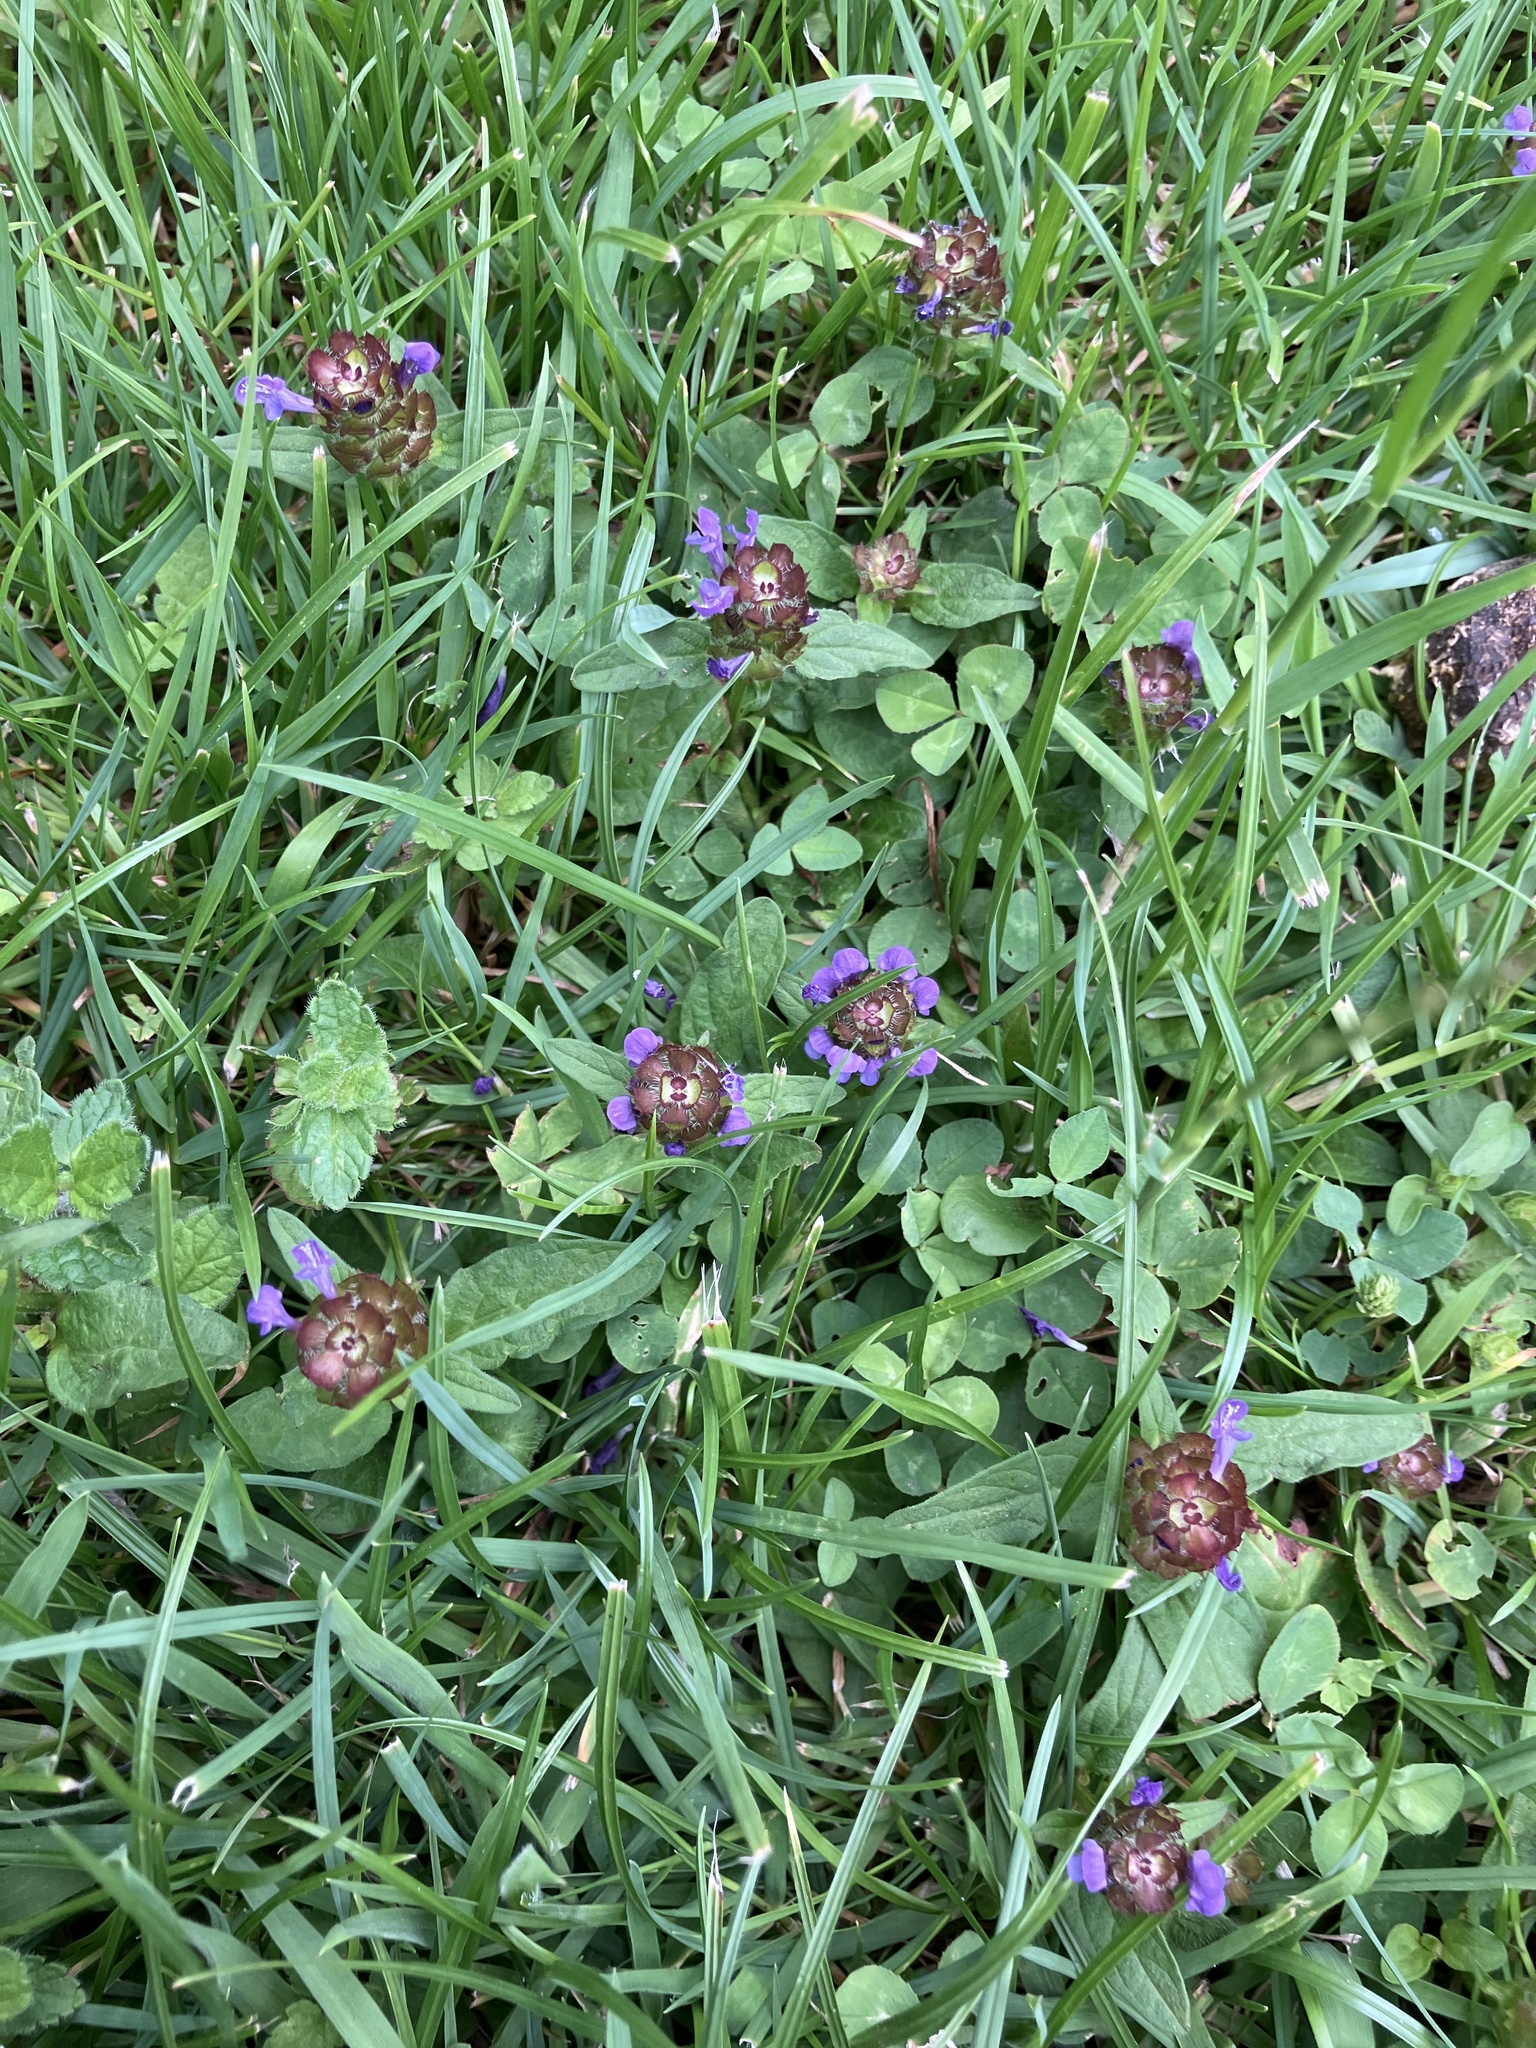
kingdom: Plantae
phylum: Tracheophyta
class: Magnoliopsida
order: Lamiales
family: Lamiaceae
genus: Prunella
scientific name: Prunella vulgaris
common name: Heal-all
